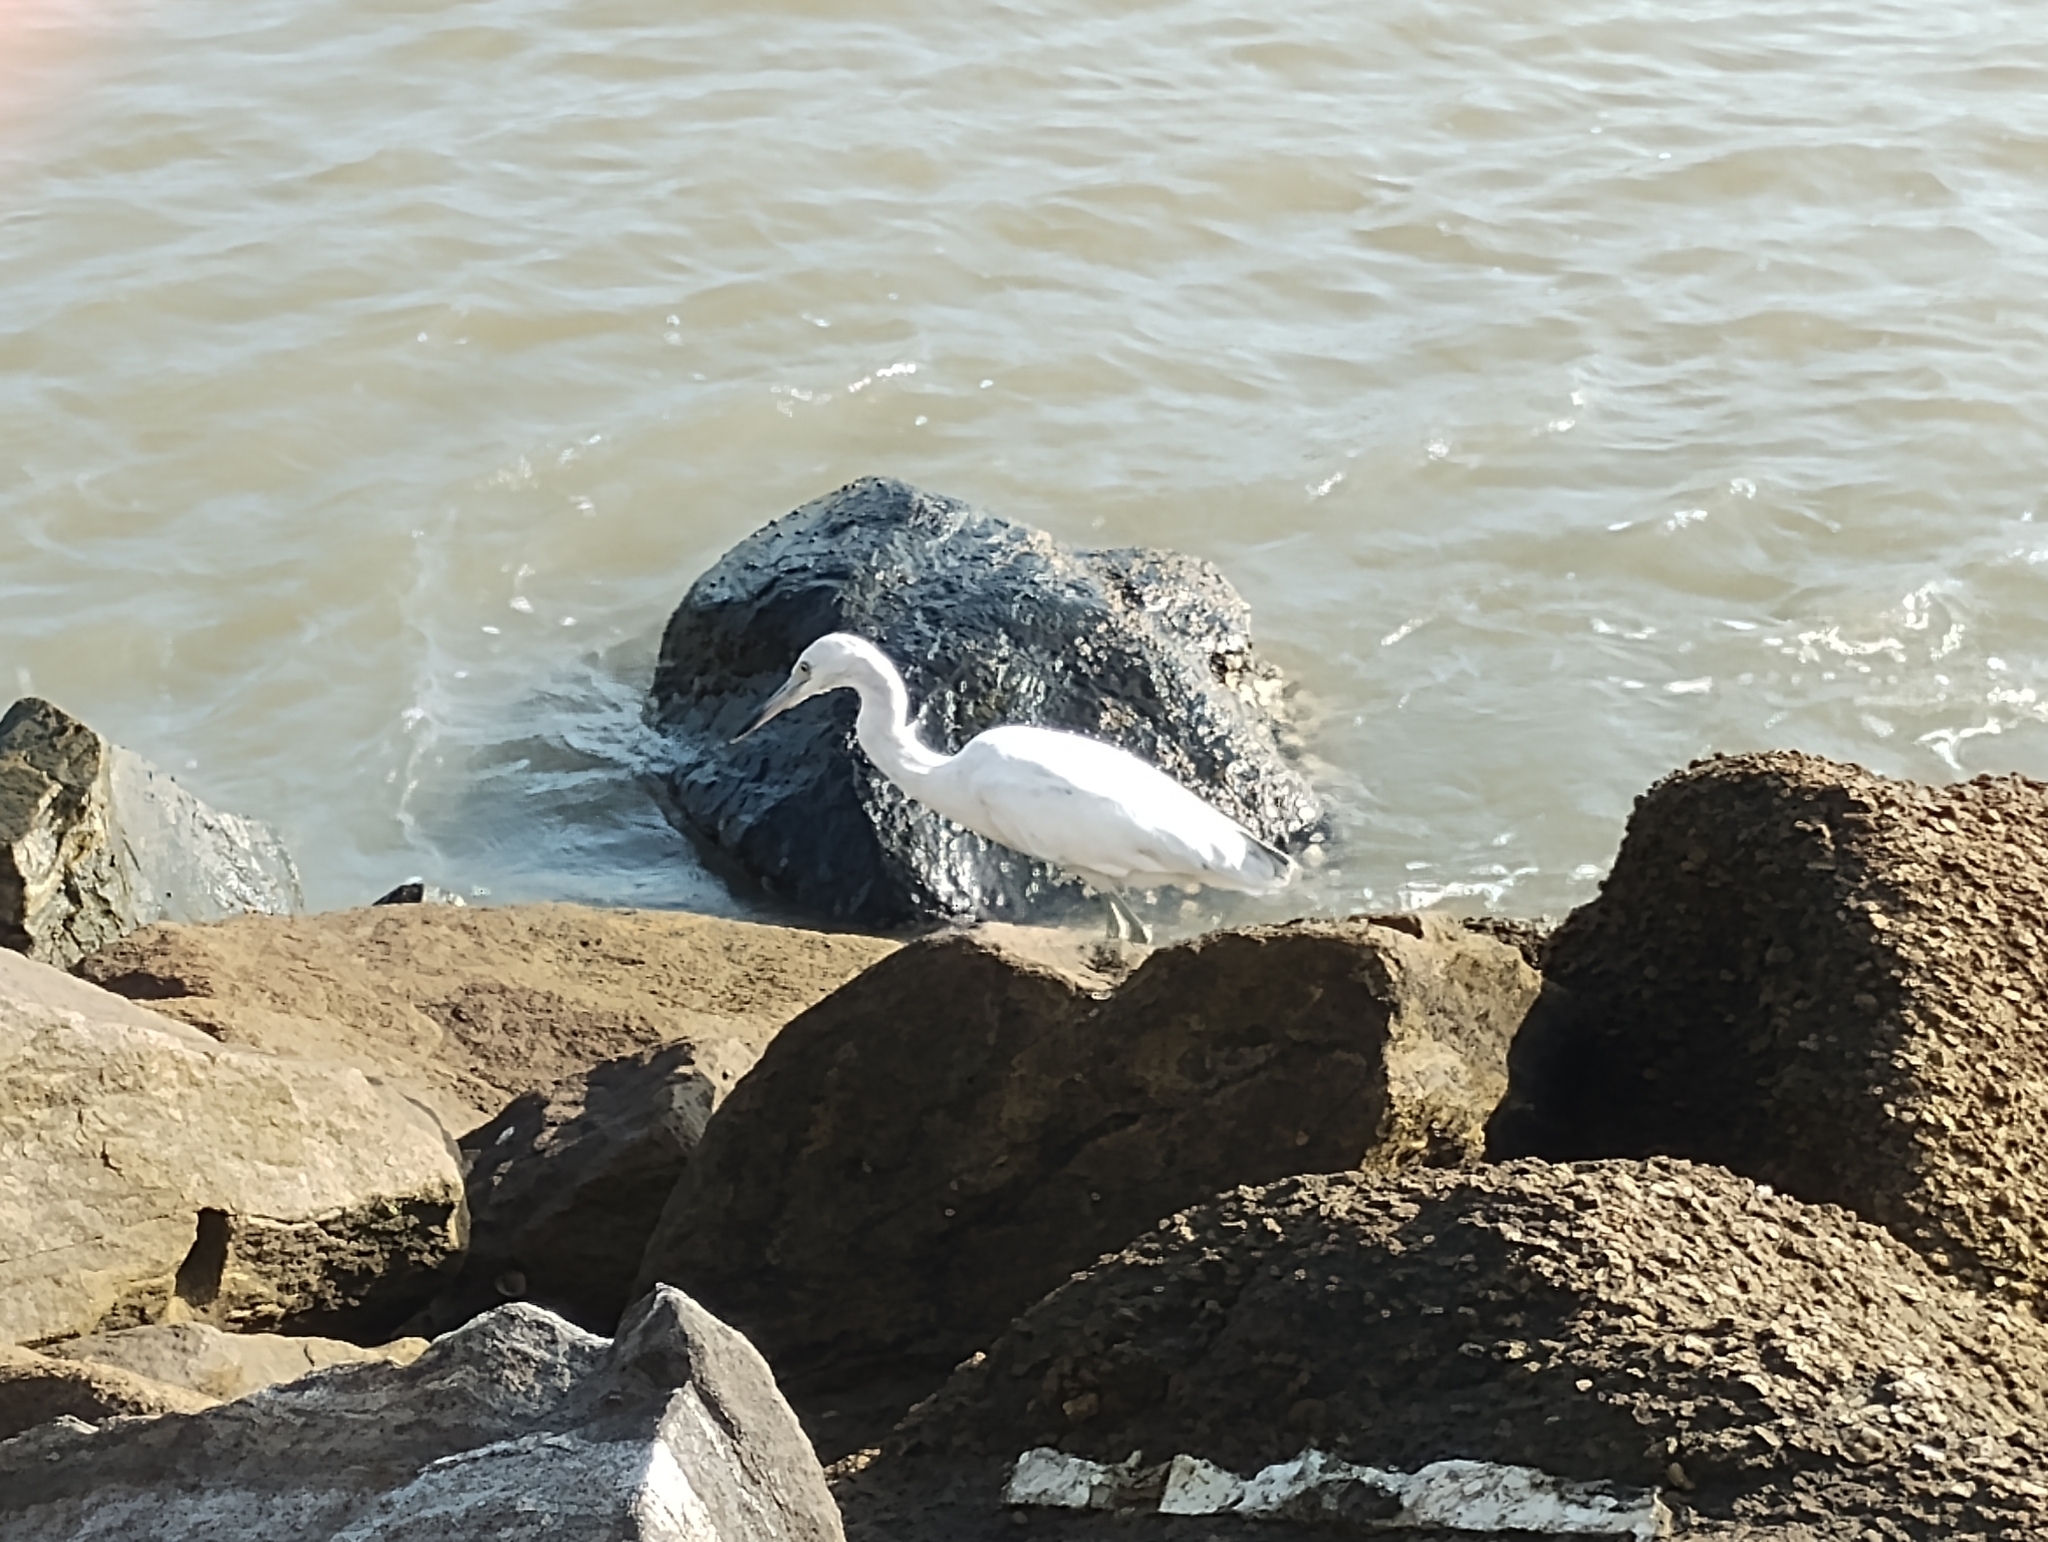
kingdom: Animalia
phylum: Chordata
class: Aves
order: Pelecaniformes
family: Ardeidae
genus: Egretta
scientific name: Egretta thula
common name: Snowy egret
